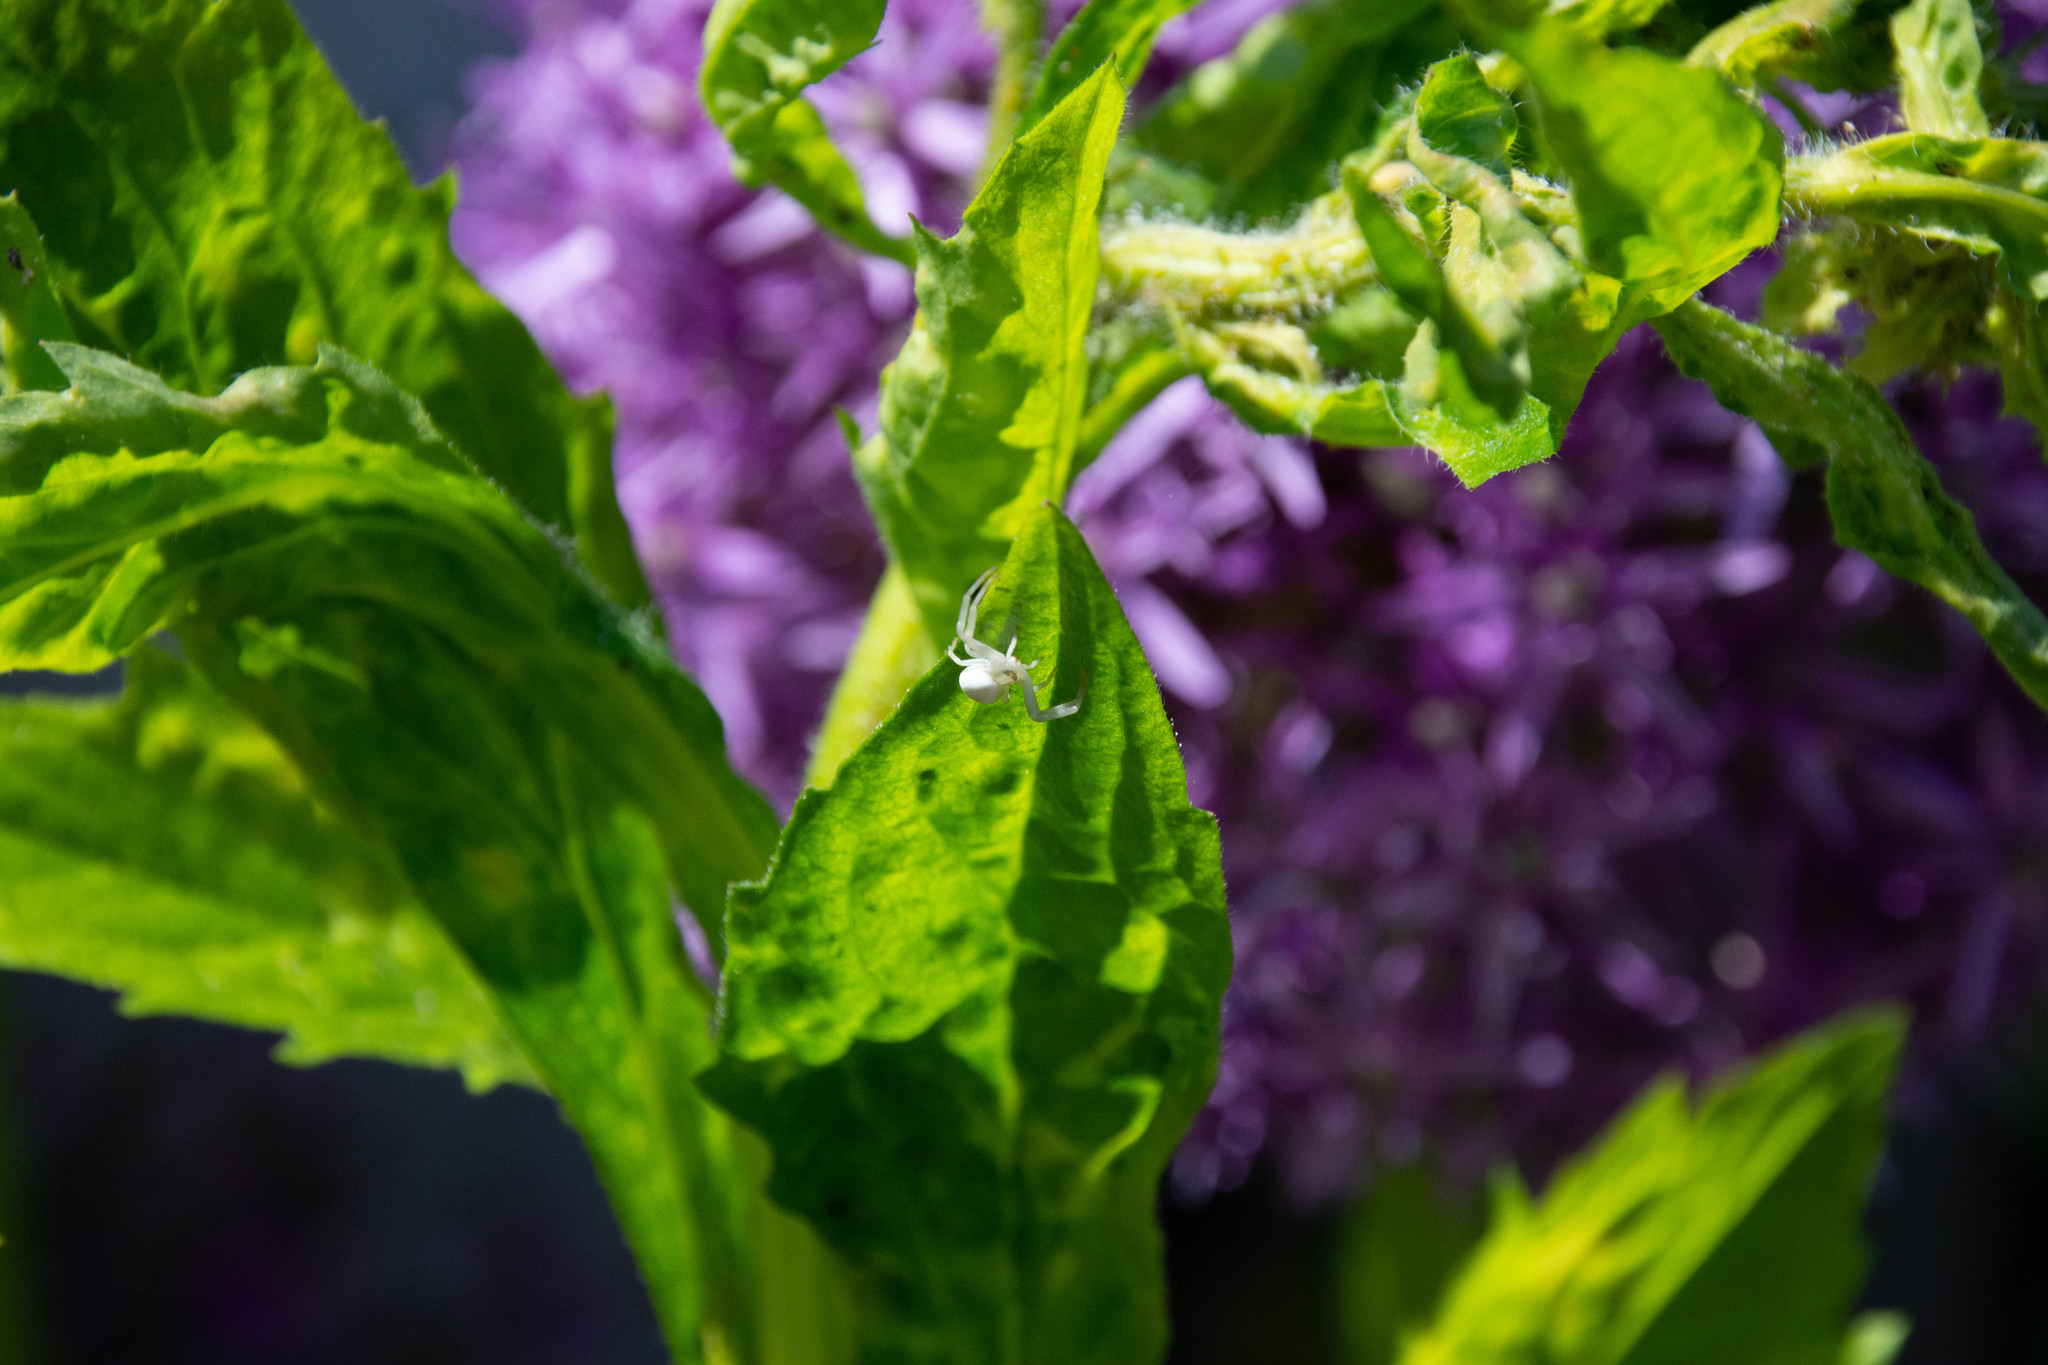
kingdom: Animalia
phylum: Arthropoda
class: Arachnida
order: Araneae
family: Thomisidae
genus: Misumena
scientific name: Misumena vatia
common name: Goldenrod crab spider
